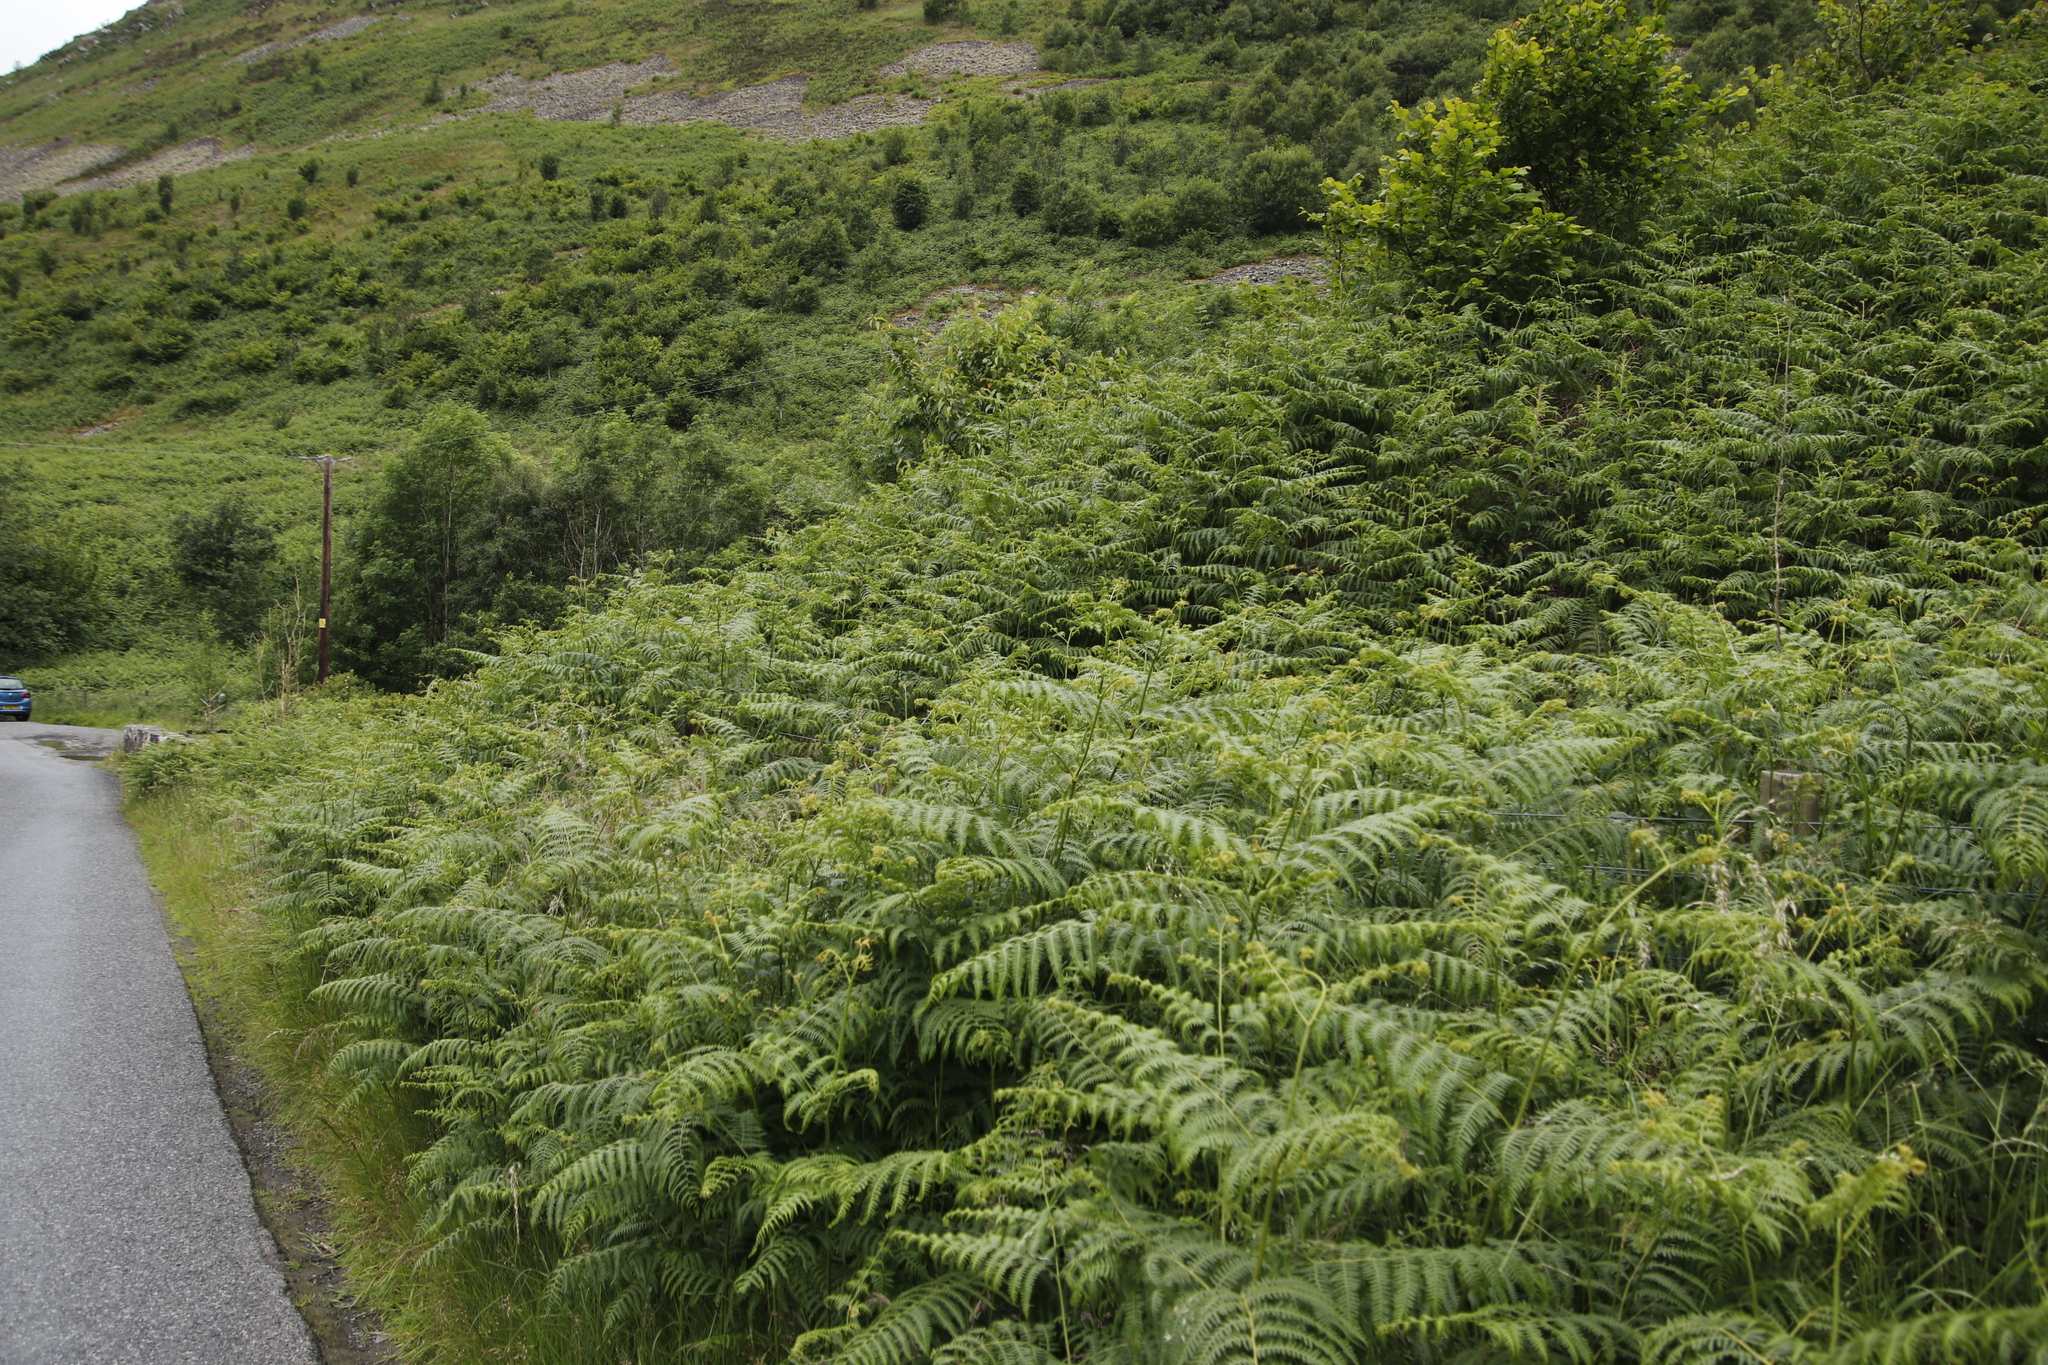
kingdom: Plantae
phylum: Tracheophyta
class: Polypodiopsida
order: Polypodiales
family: Dennstaedtiaceae
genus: Pteridium
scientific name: Pteridium aquilinum
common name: Bracken
